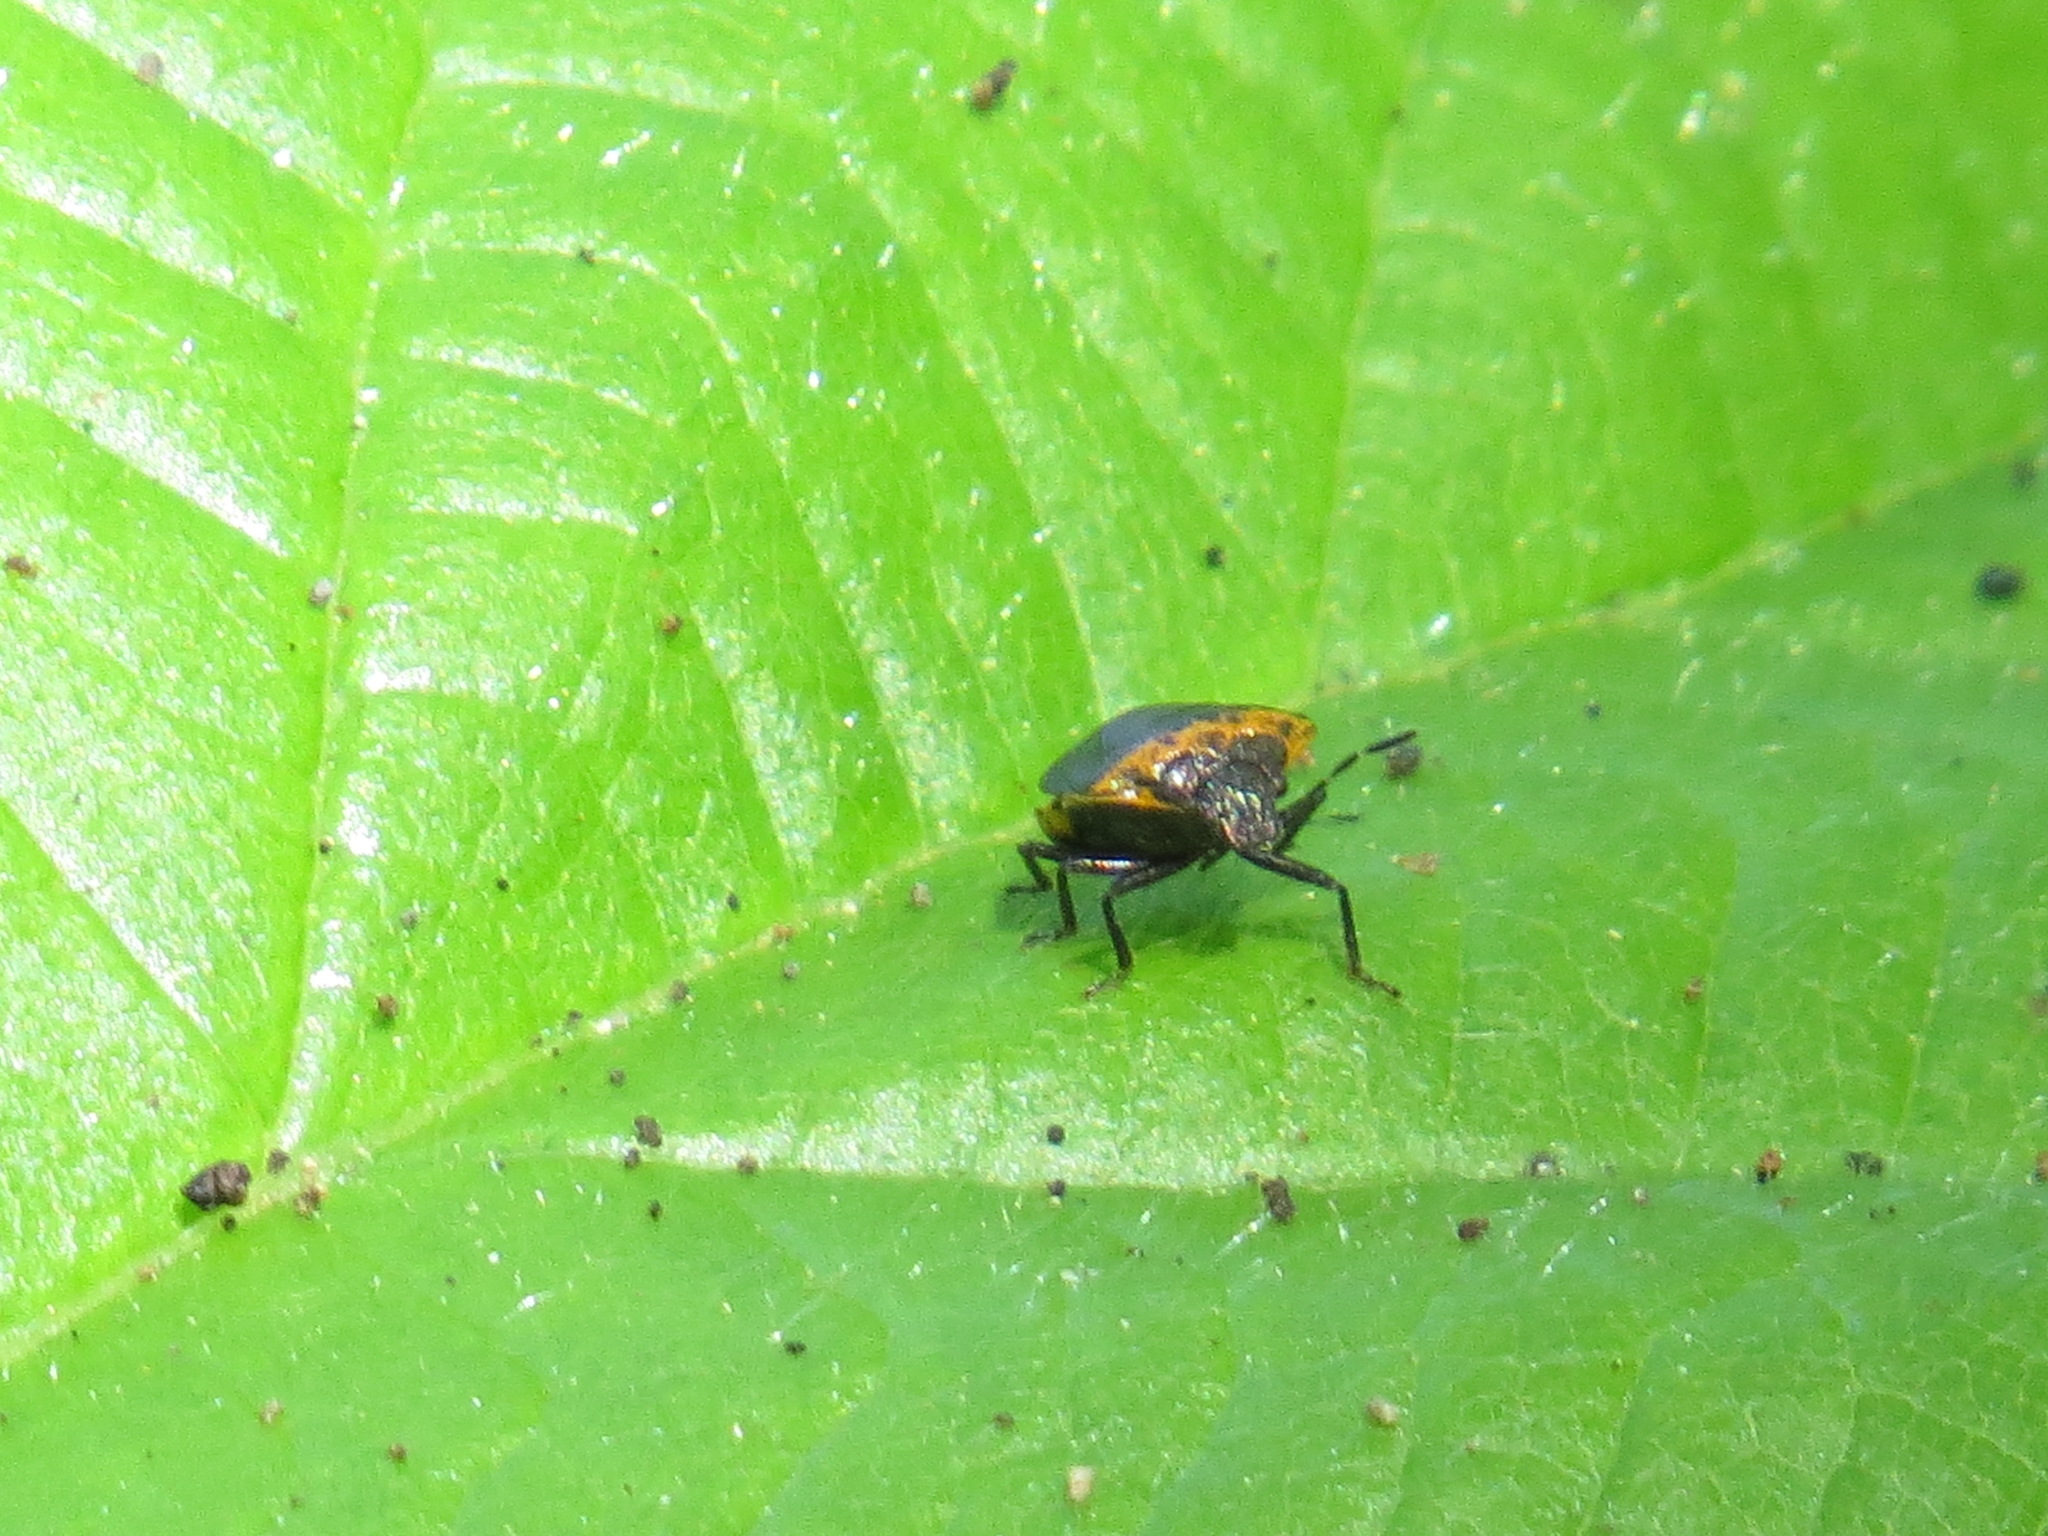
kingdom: Animalia
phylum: Arthropoda
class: Insecta
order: Hemiptera
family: Pentatomidae
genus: Cosmopepla
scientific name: Cosmopepla uhleri
